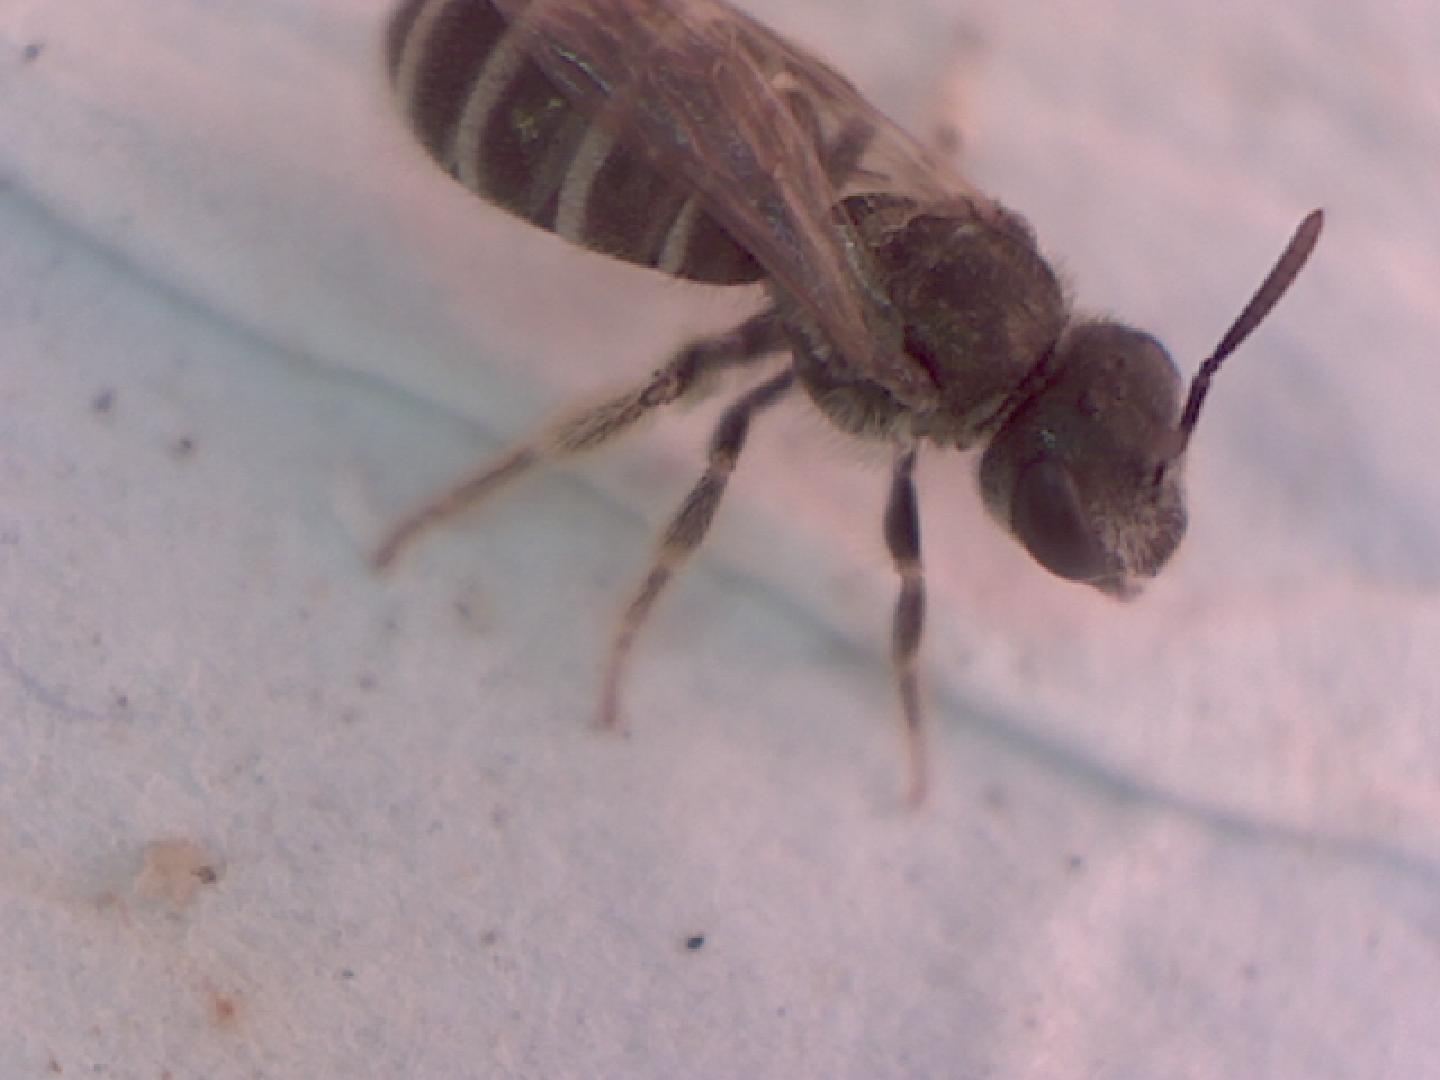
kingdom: Animalia
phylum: Arthropoda
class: Insecta
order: Hymenoptera
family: Halictidae
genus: Halictus
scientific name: Halictus tripartitus
